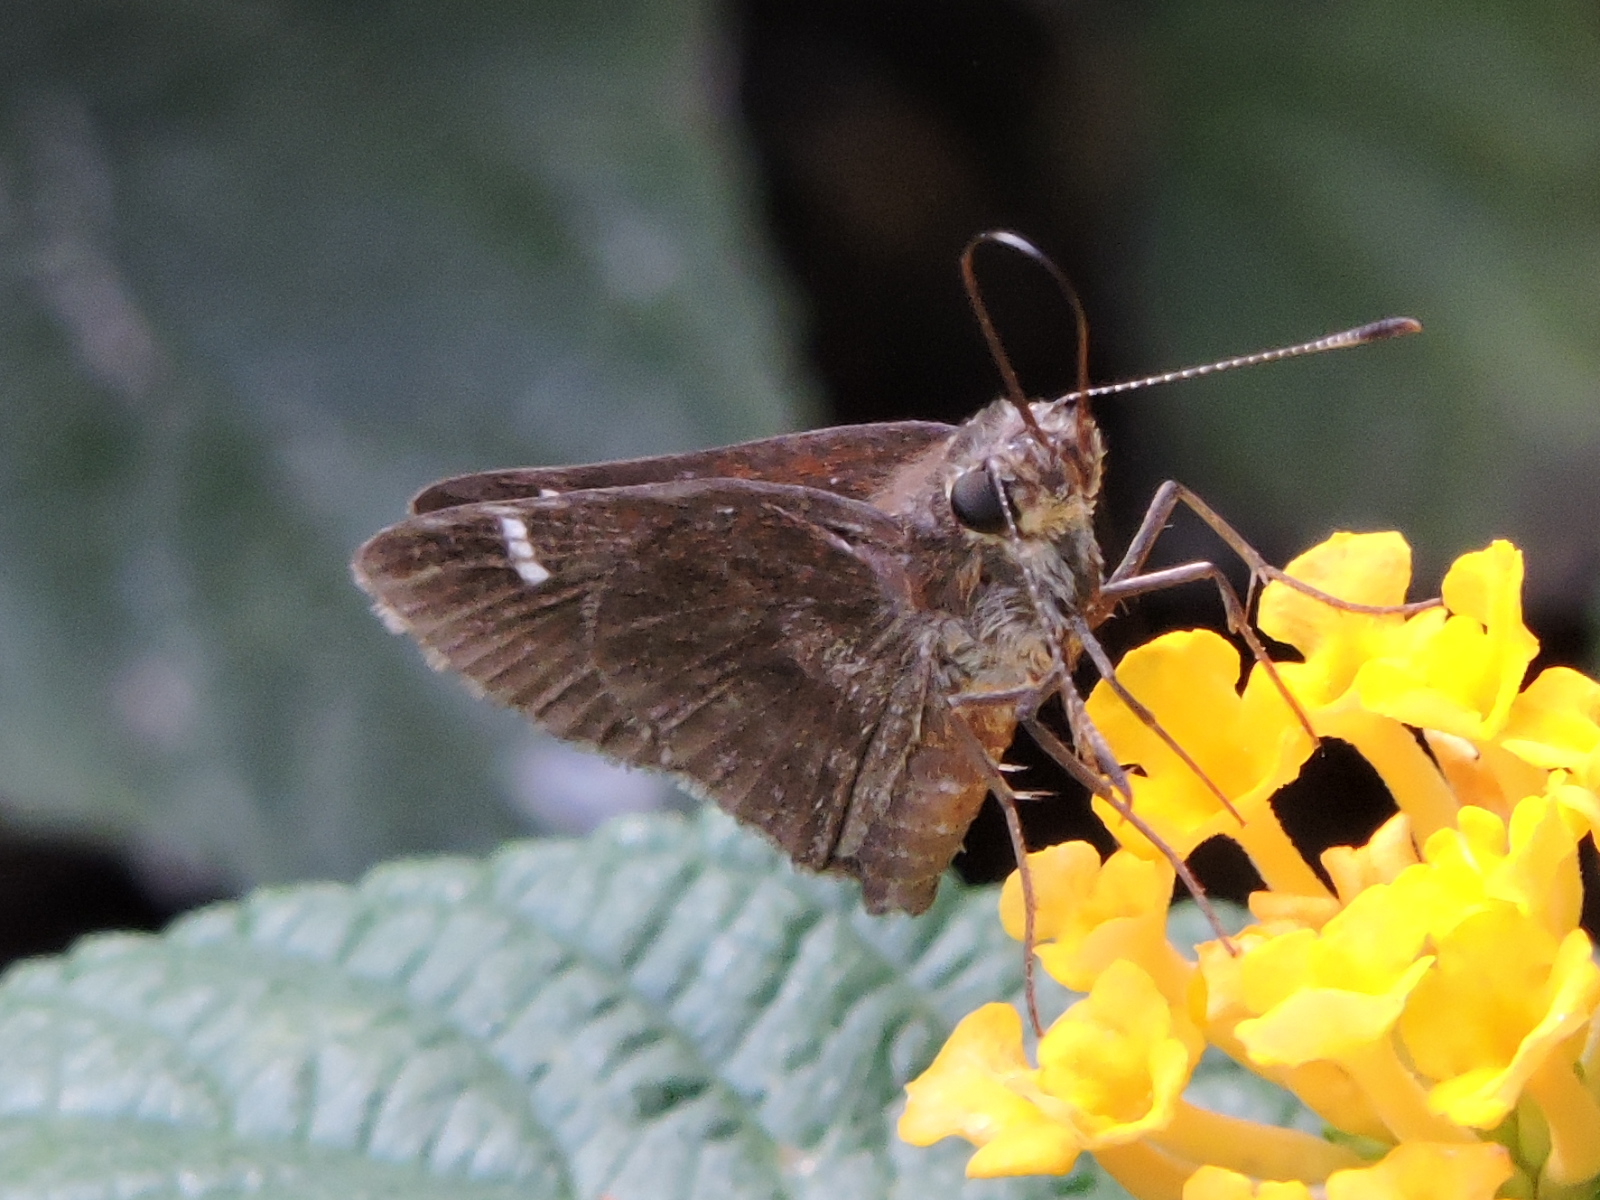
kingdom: Animalia
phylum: Arthropoda
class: Insecta
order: Lepidoptera
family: Hesperiidae
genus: Lerema
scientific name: Lerema accius
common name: Clouded skipper
